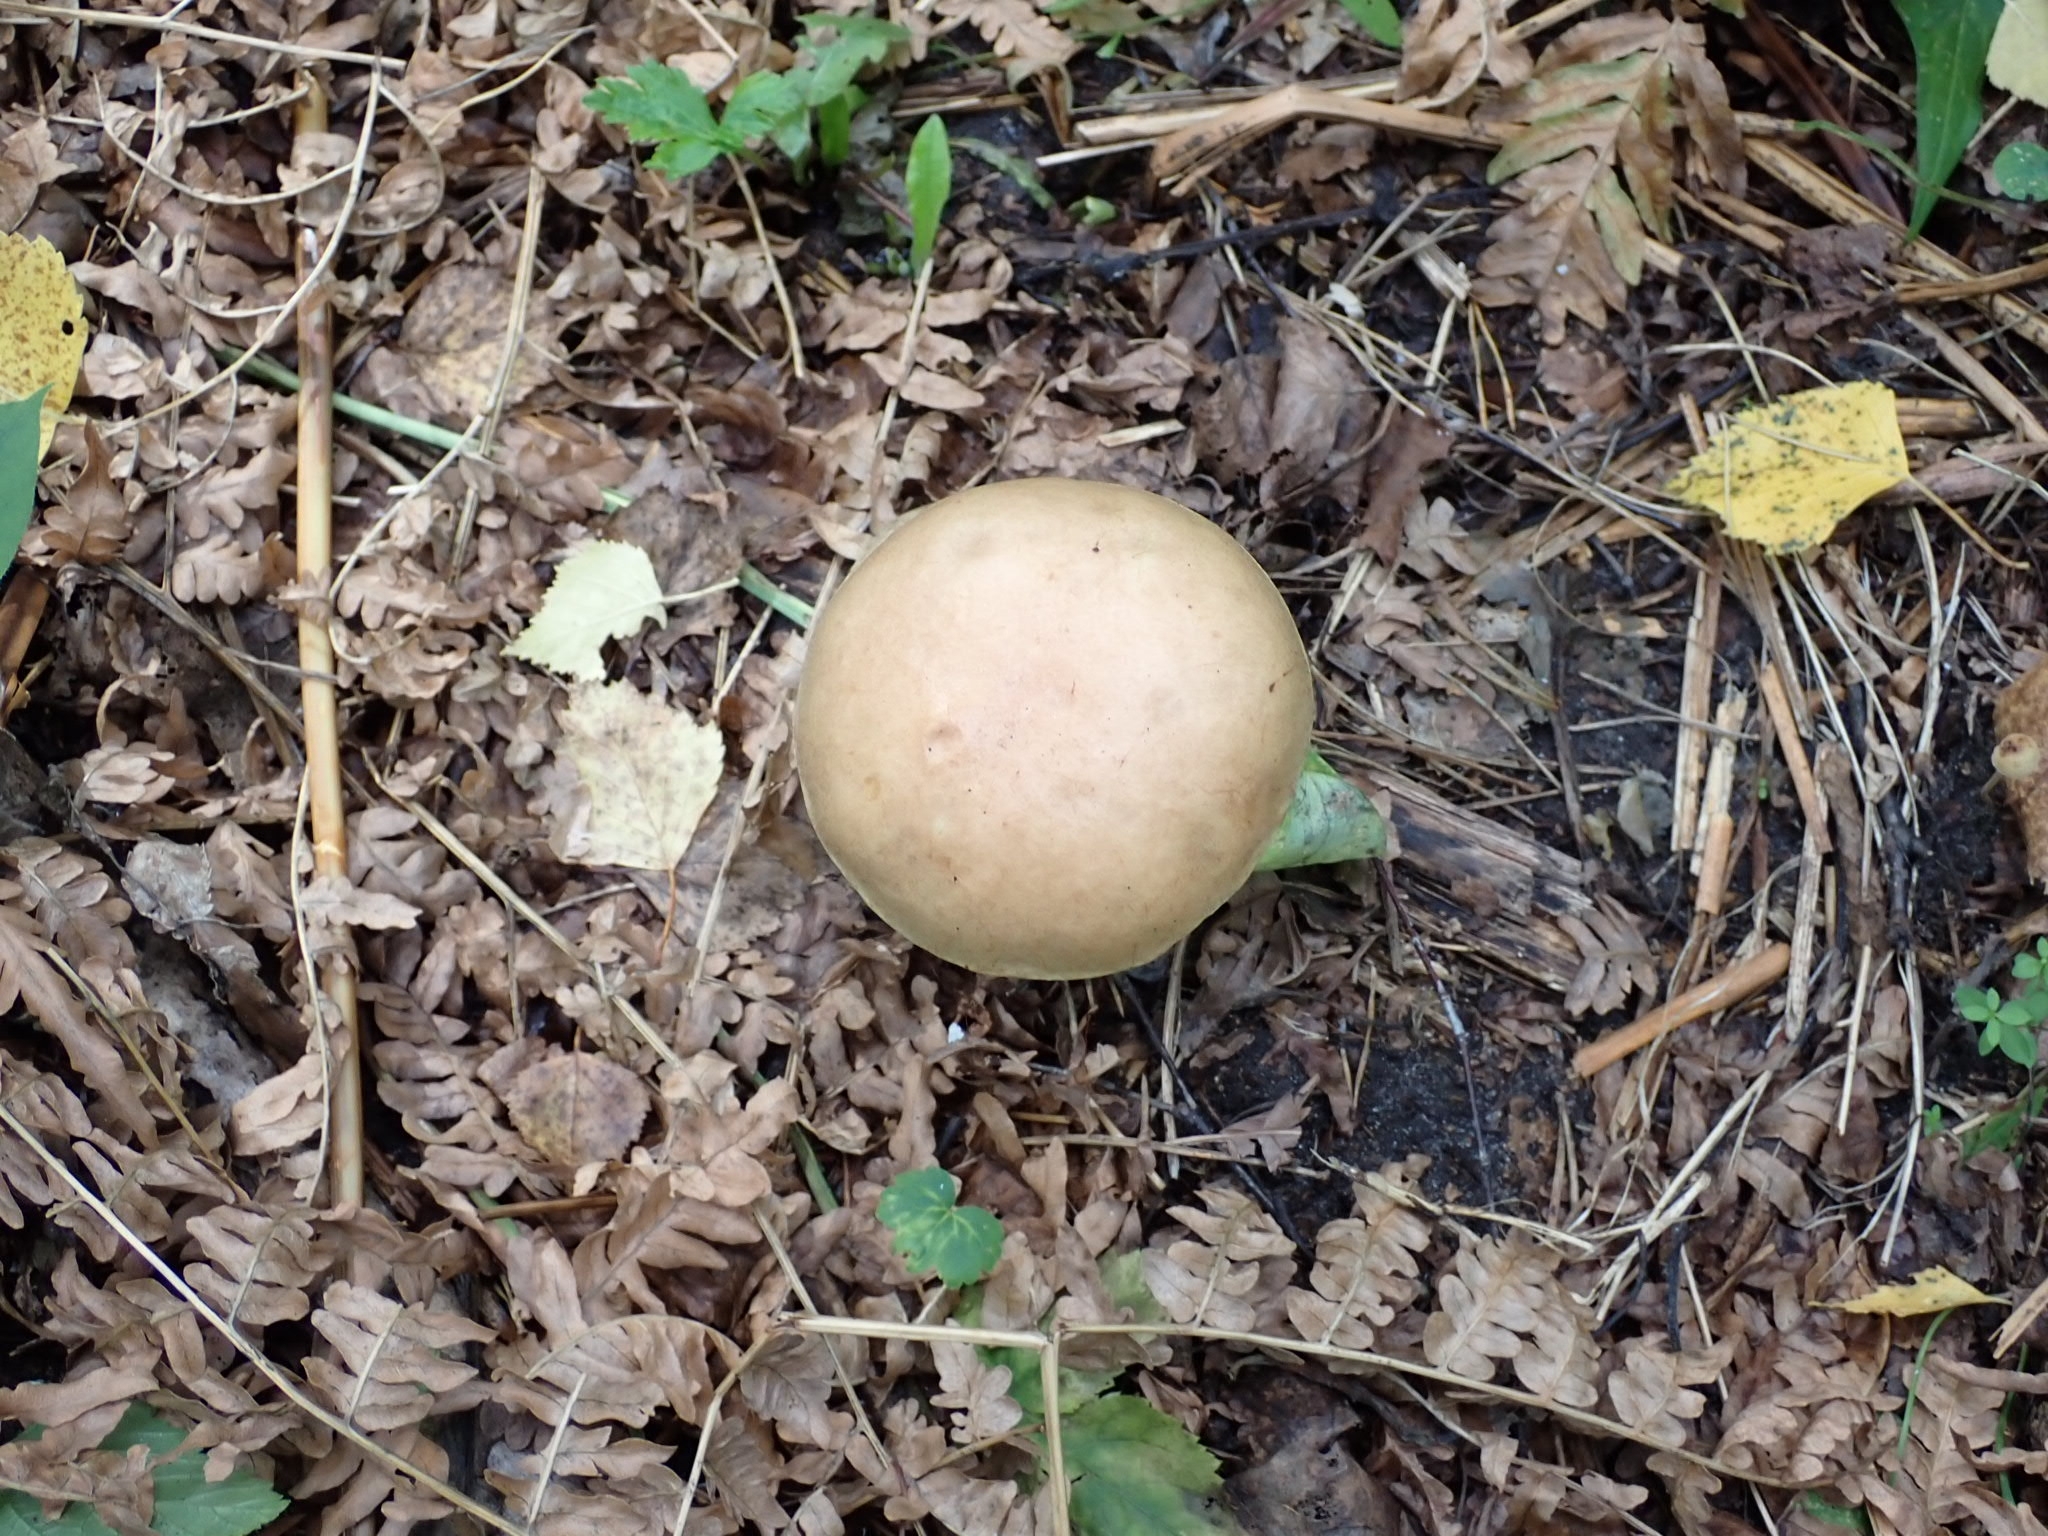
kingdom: Fungi
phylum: Basidiomycota
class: Agaricomycetes
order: Boletales
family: Boletaceae
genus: Leccinum
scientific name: Leccinum scabrum
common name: Blushing bolete
